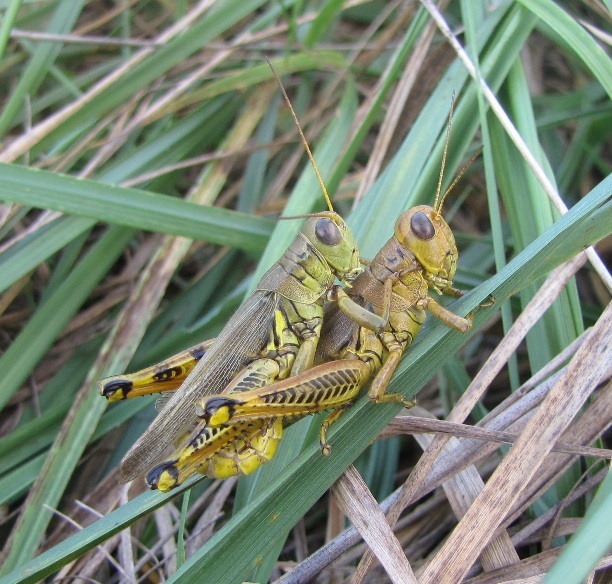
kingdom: Animalia
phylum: Arthropoda
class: Insecta
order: Orthoptera
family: Acrididae
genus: Melanoplus
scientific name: Melanoplus differentialis
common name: Differential grasshopper
